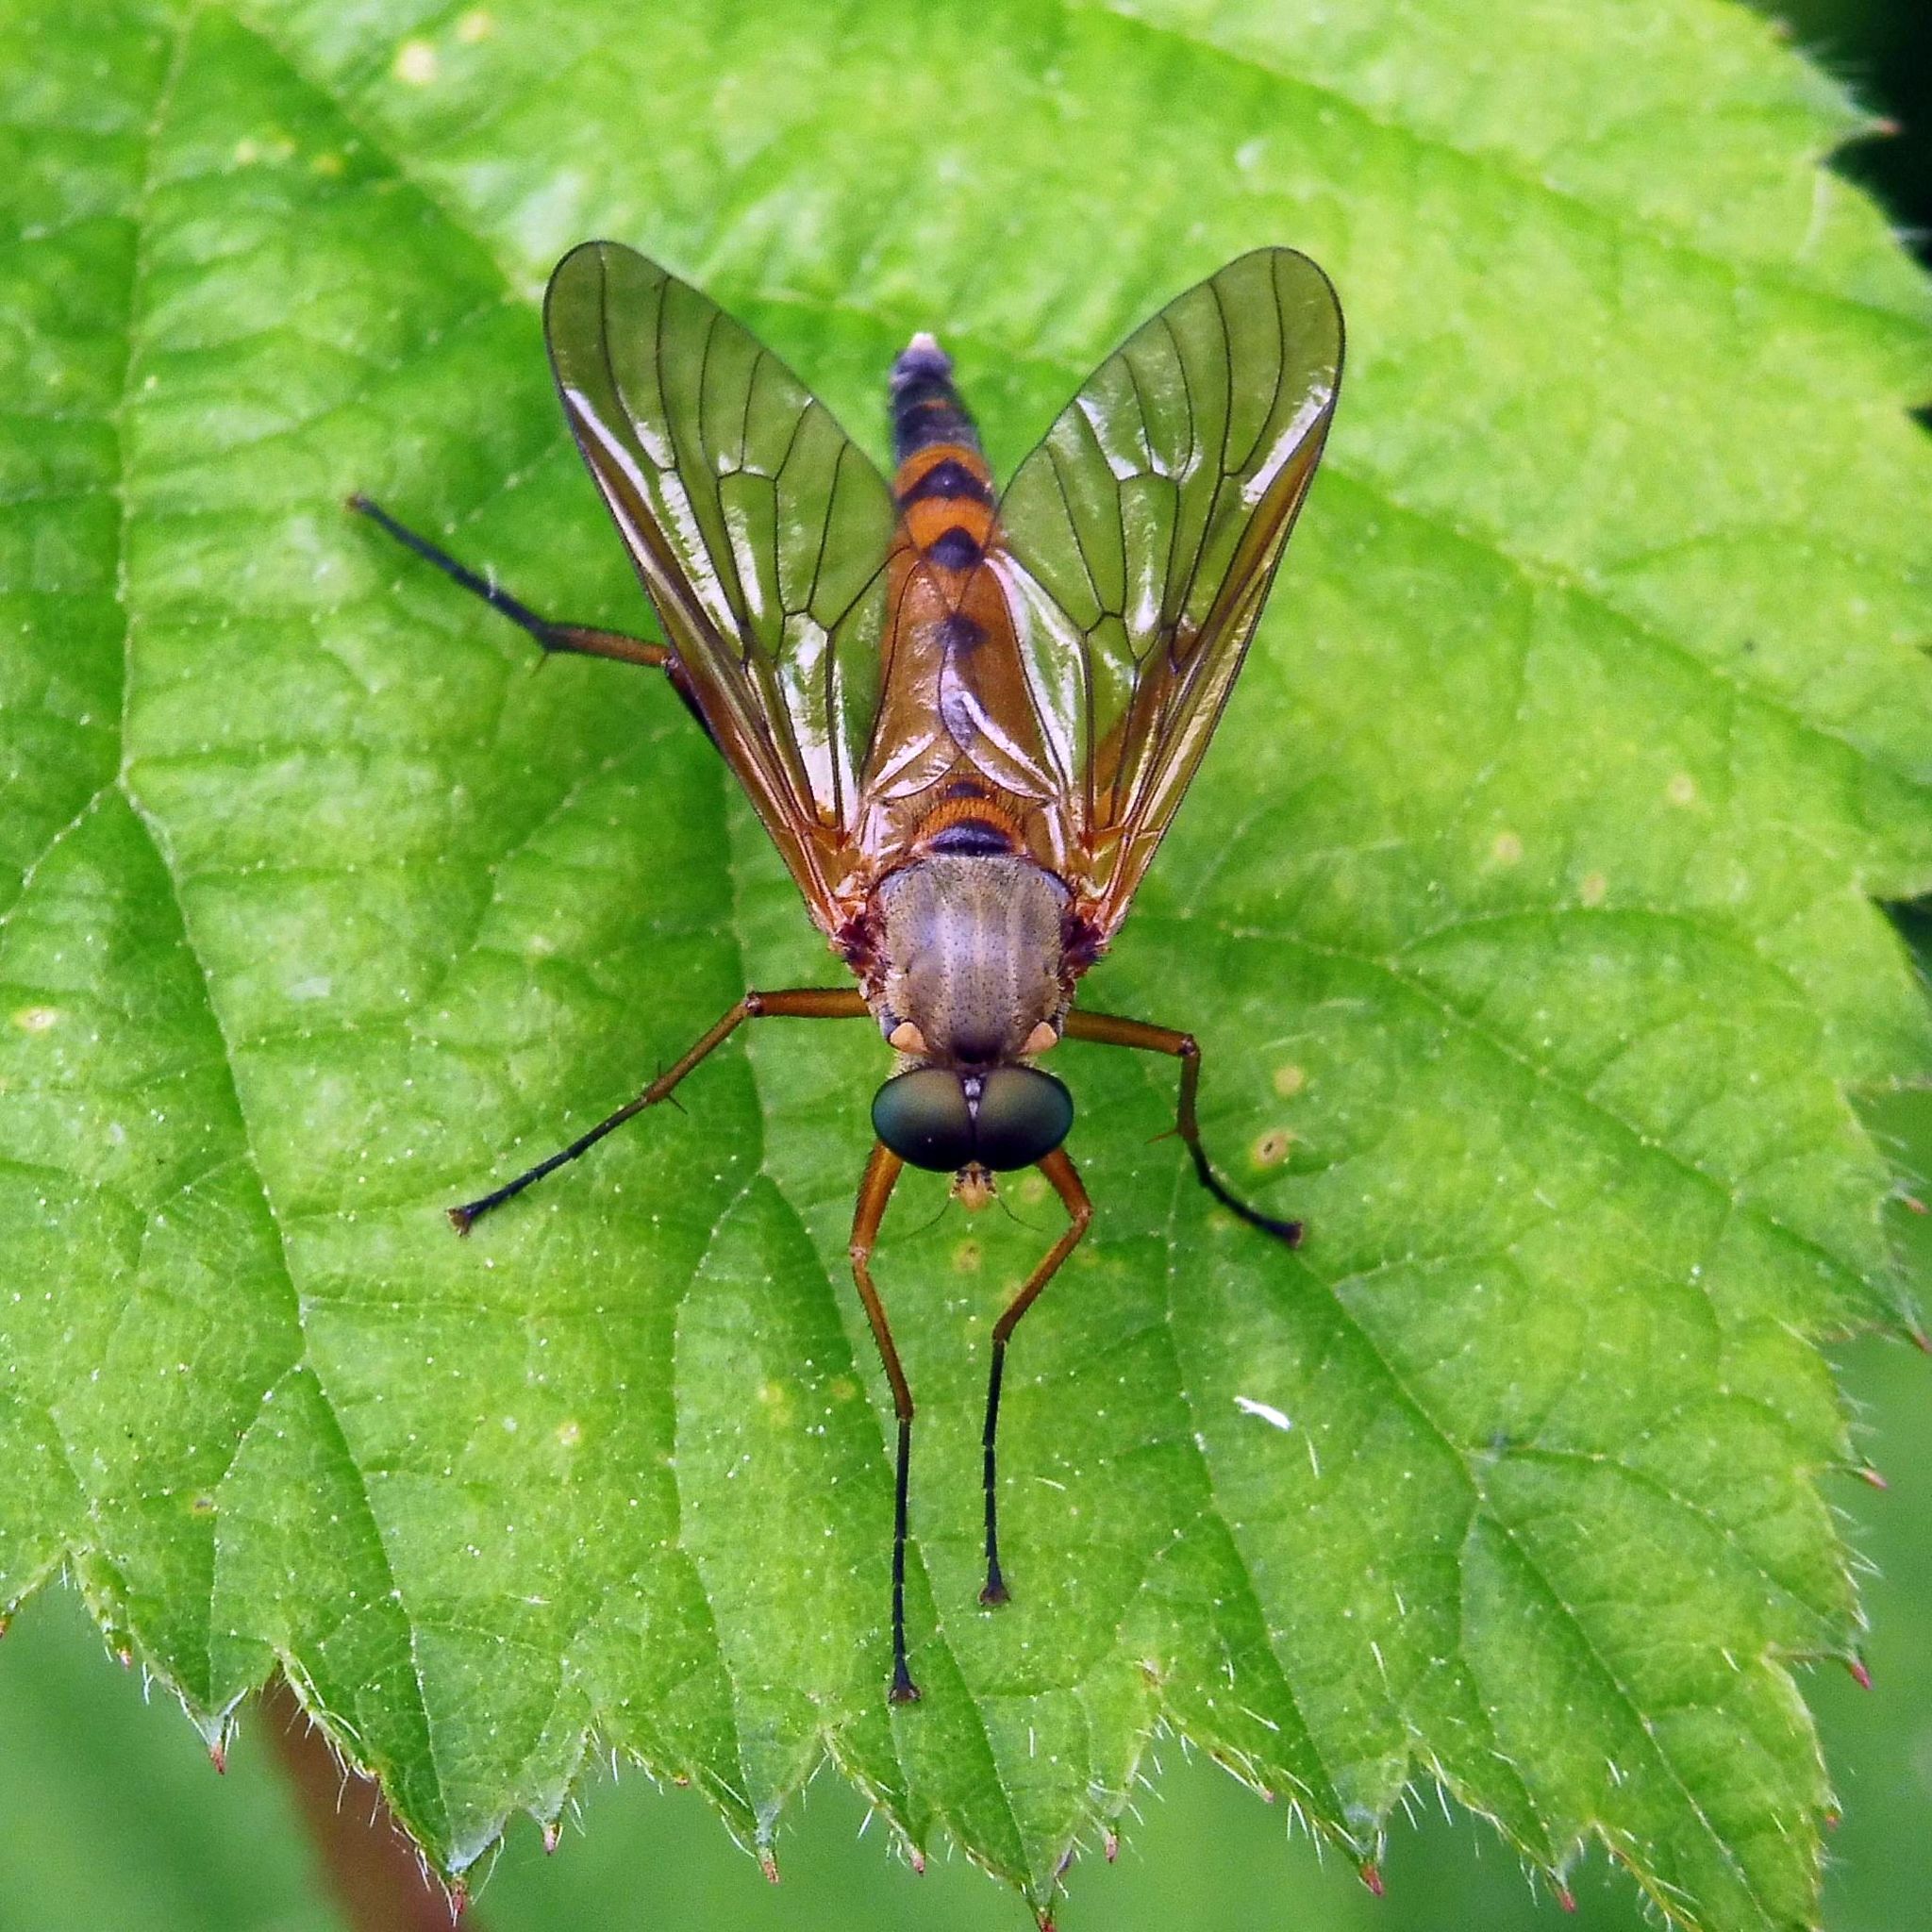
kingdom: Animalia
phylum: Arthropoda
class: Insecta
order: Diptera
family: Rhagionidae
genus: Rhagio
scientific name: Rhagio tringaria
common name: Marsh snipefly
